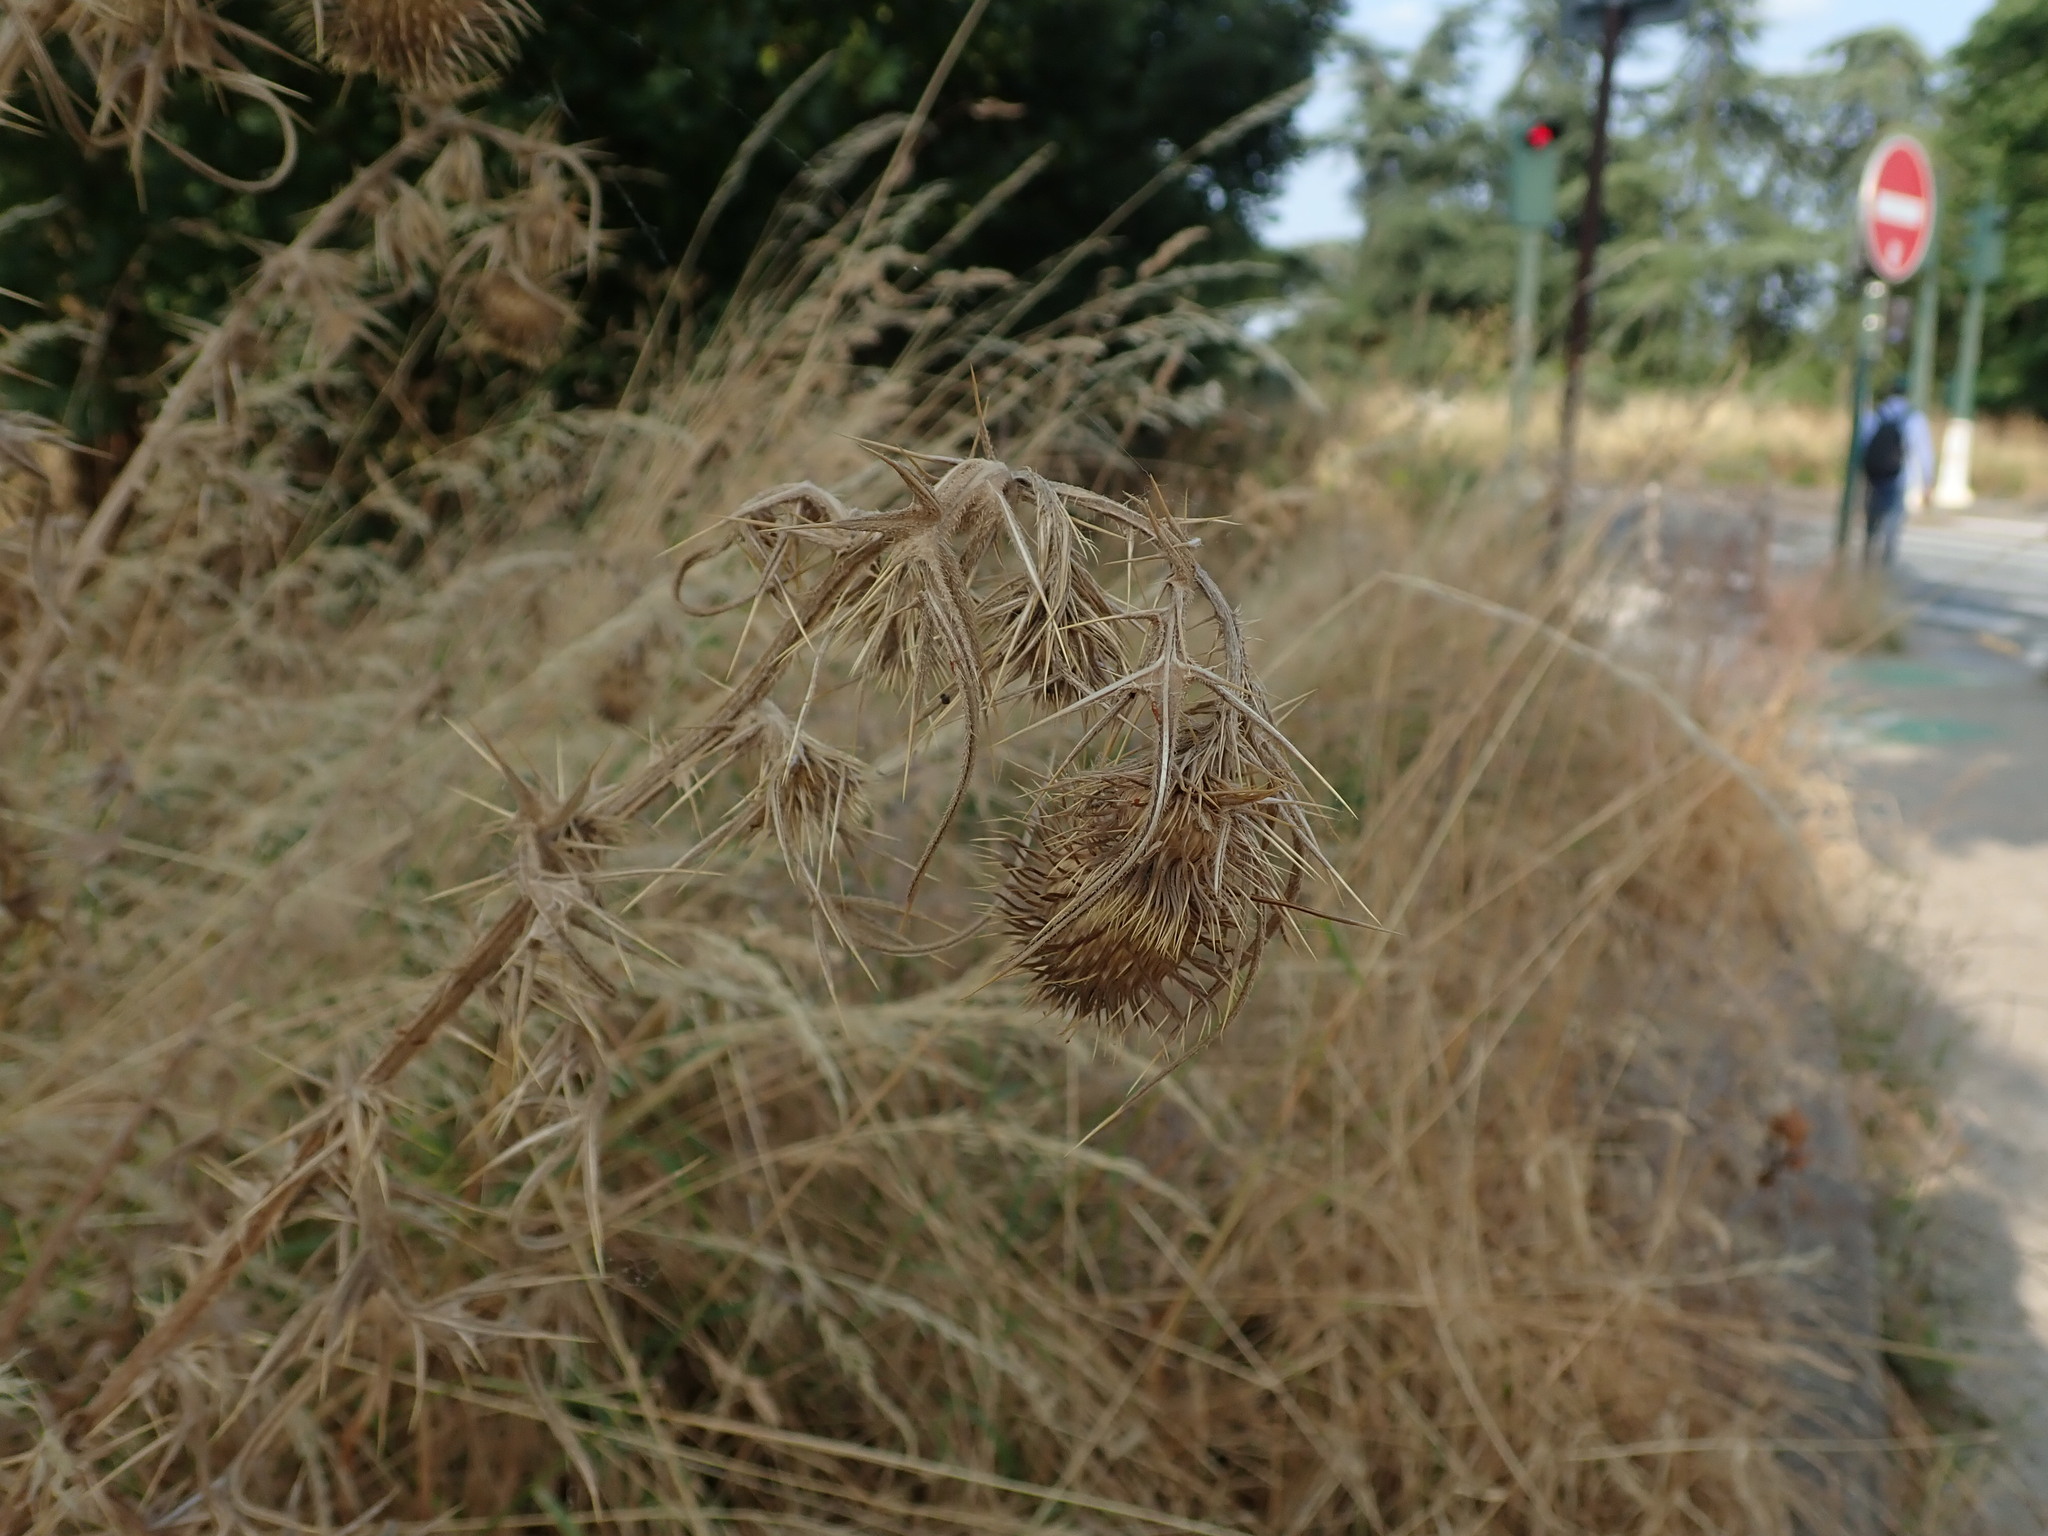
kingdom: Plantae
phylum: Tracheophyta
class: Magnoliopsida
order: Asterales
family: Asteraceae
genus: Cirsium
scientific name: Cirsium vulgare
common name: Bull thistle
